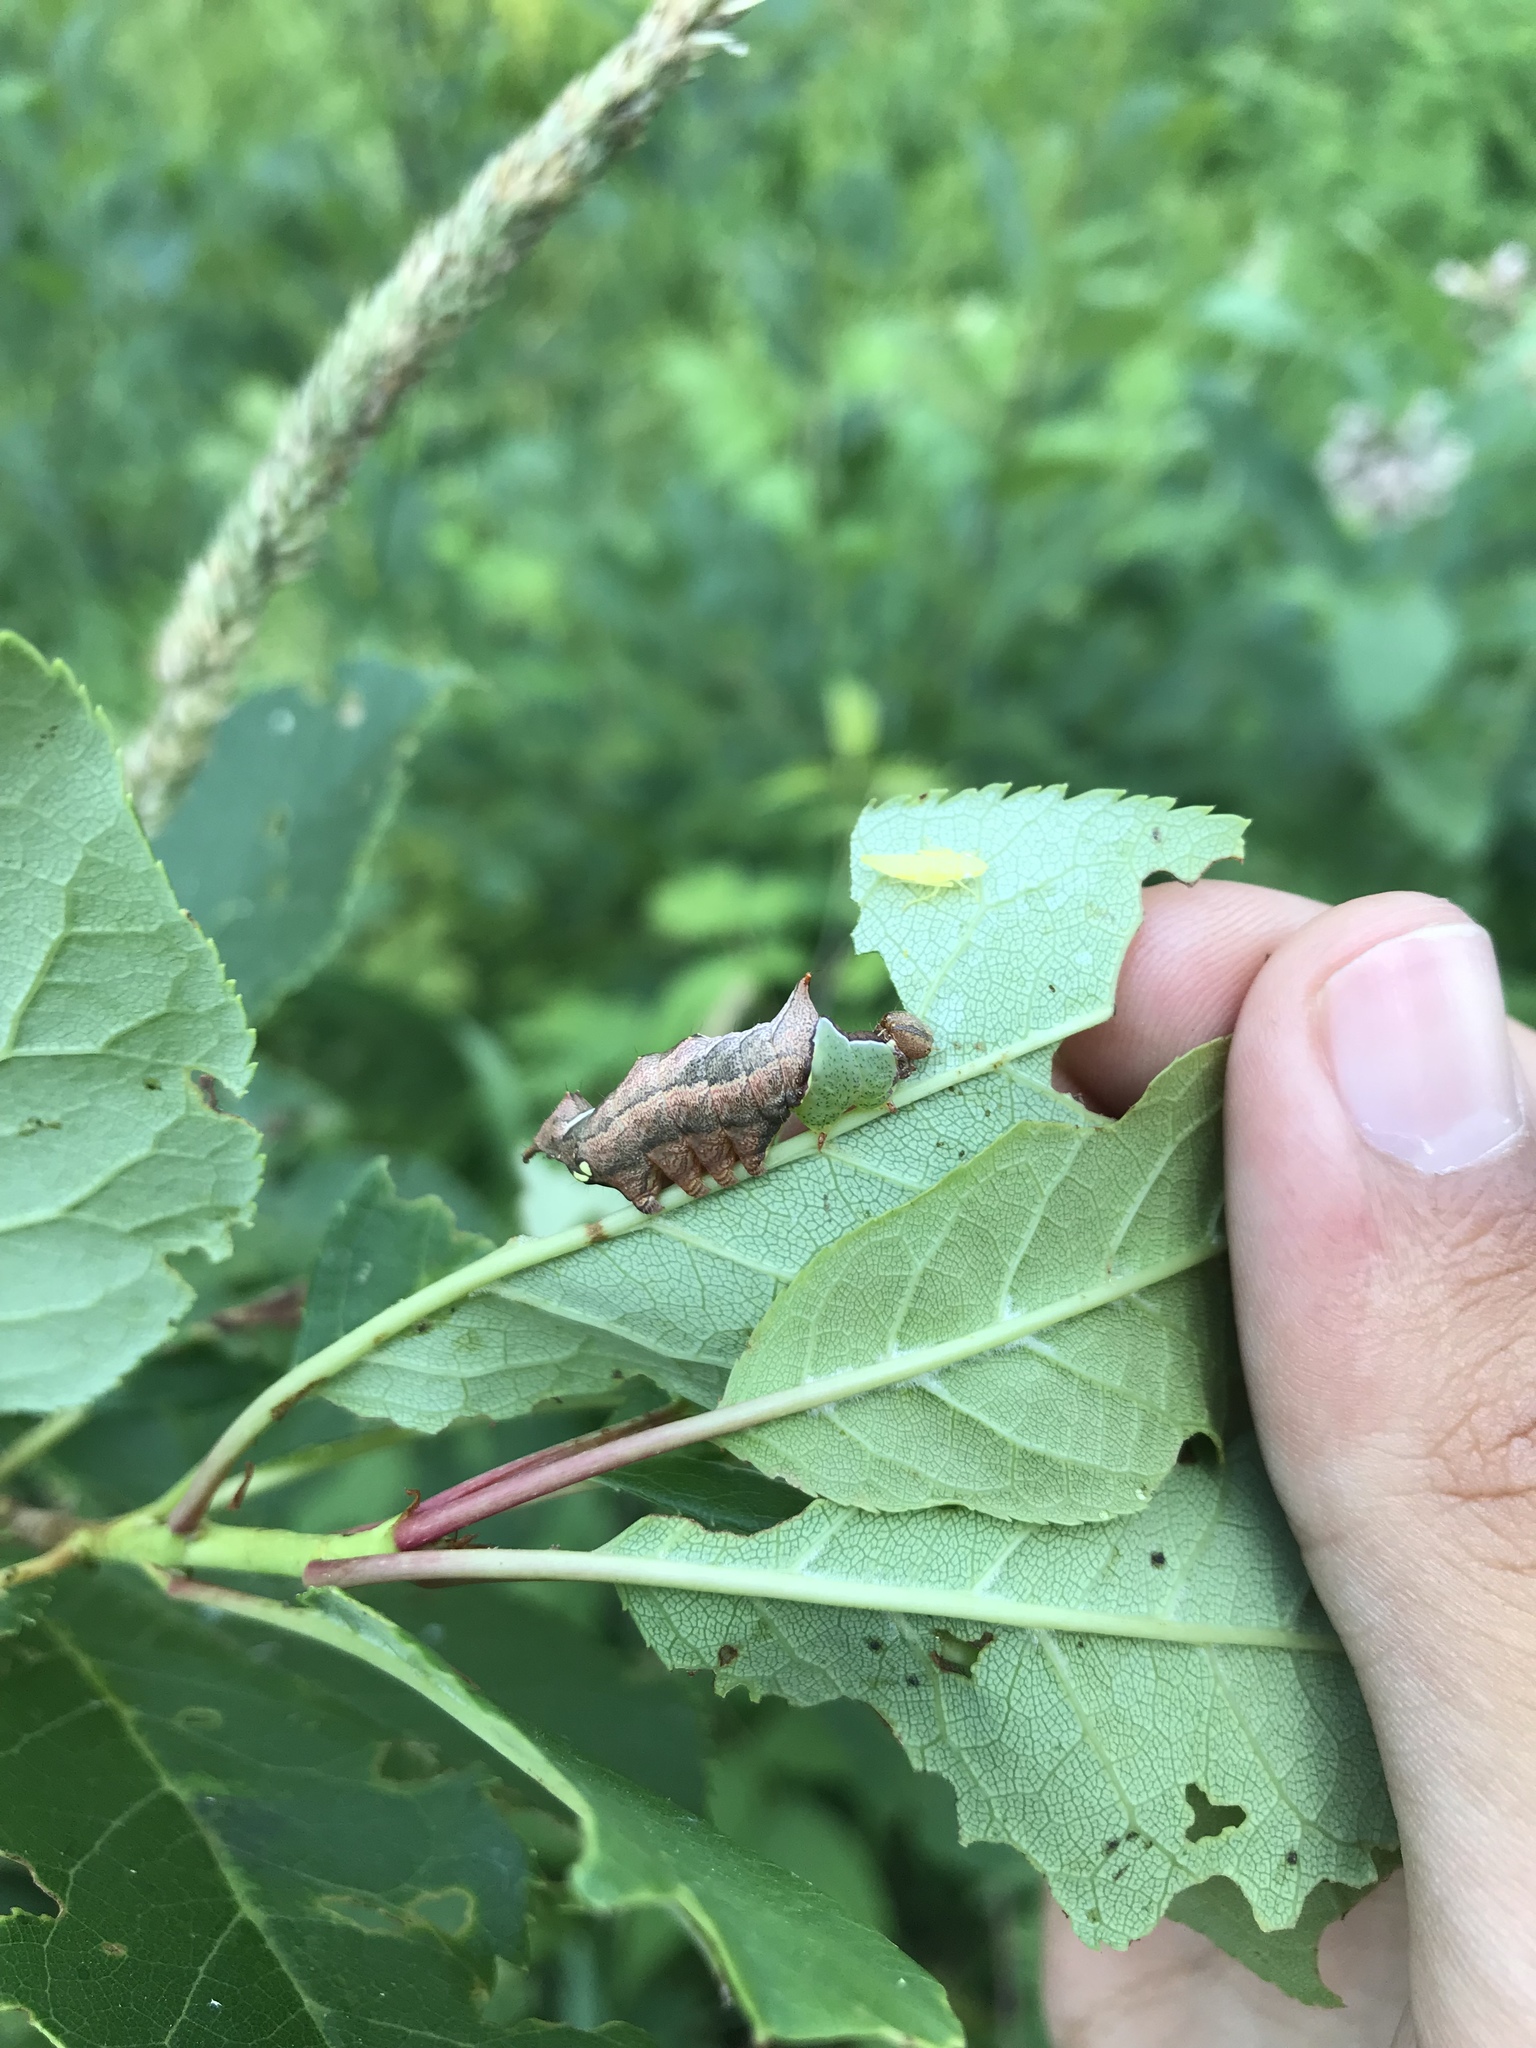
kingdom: Animalia
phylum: Arthropoda
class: Insecta
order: Lepidoptera
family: Notodontidae
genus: Schizura
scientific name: Schizura
